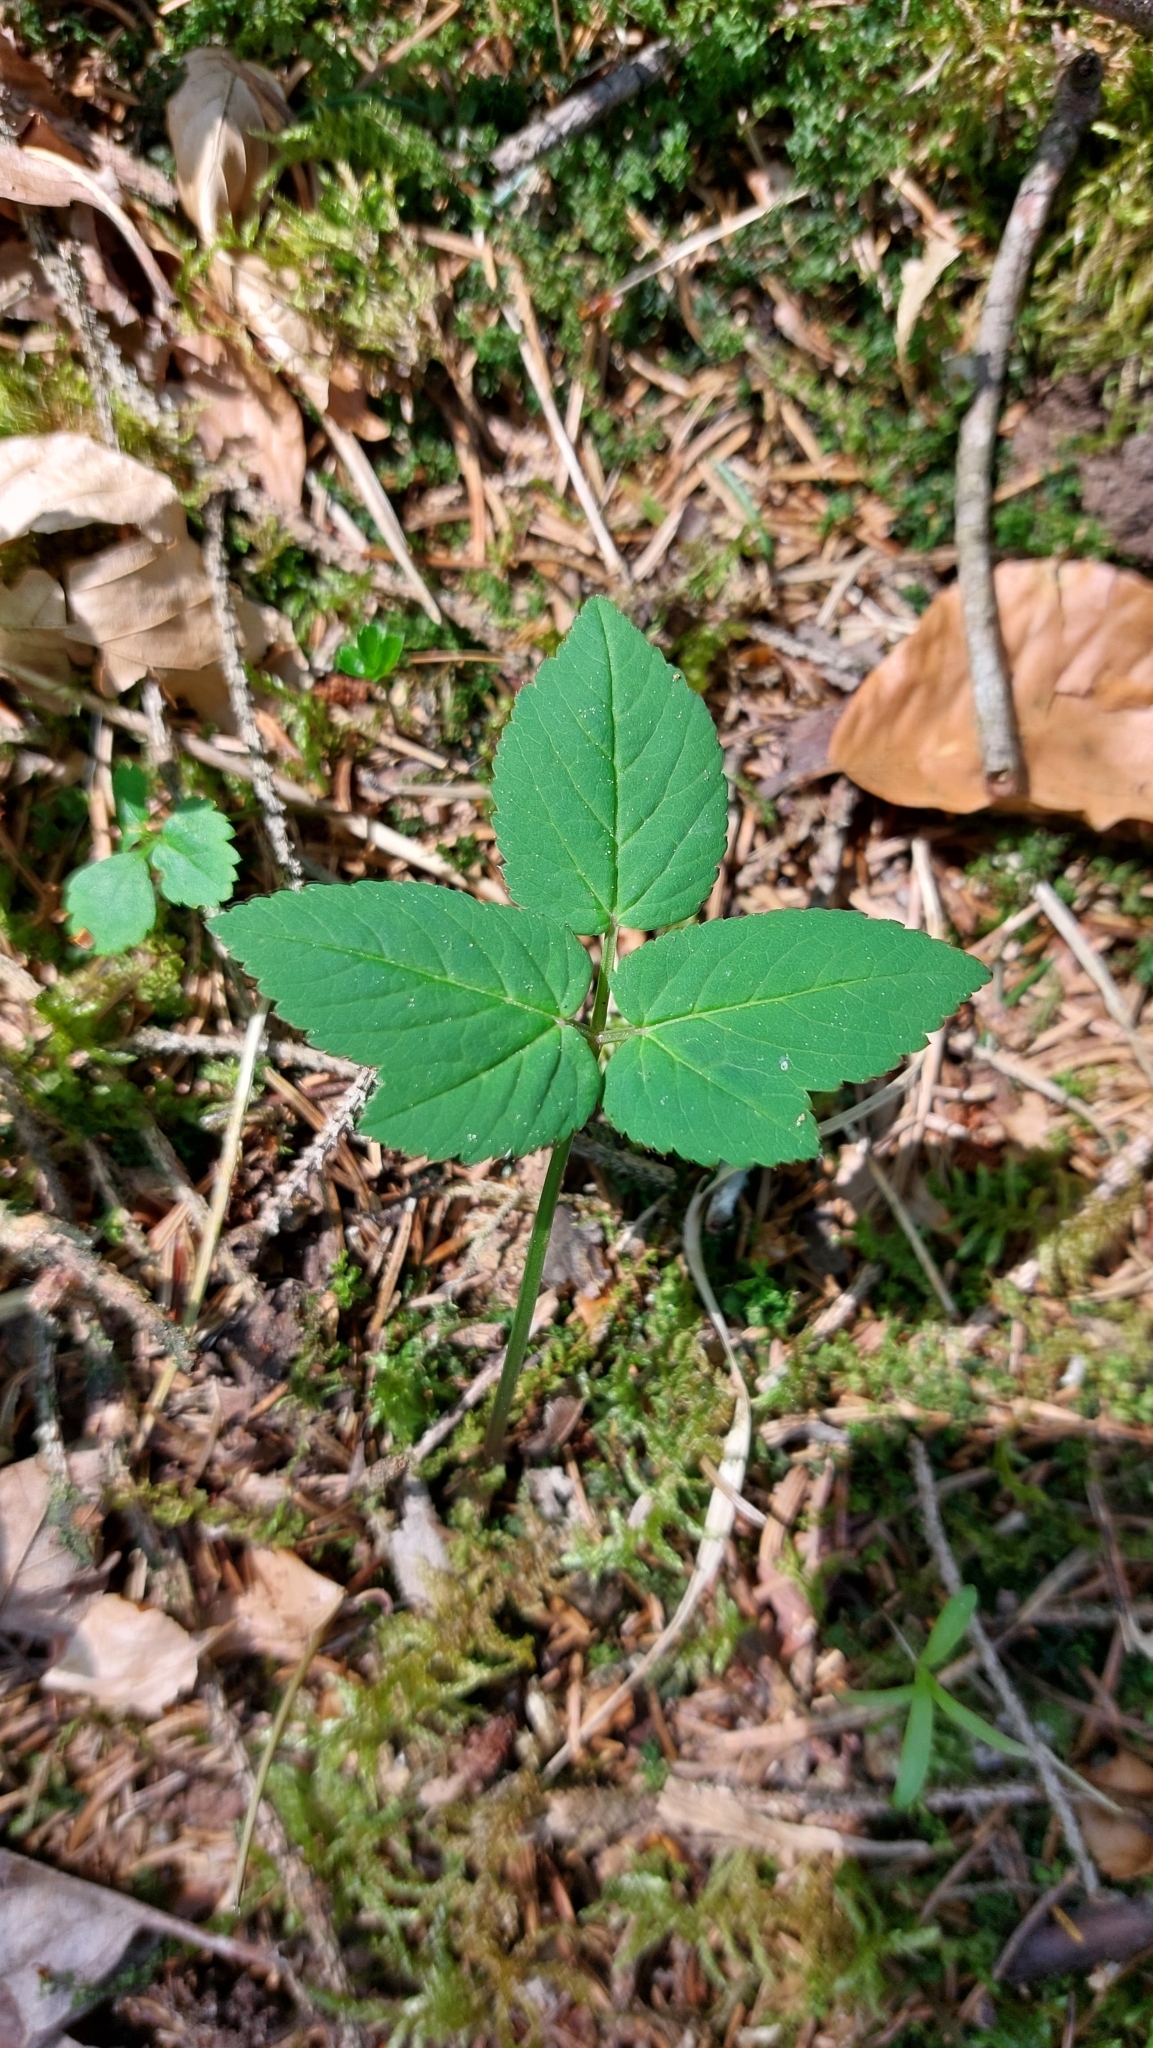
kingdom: Plantae
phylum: Tracheophyta
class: Magnoliopsida
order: Apiales
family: Apiaceae
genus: Aegopodium
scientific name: Aegopodium podagraria
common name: Ground-elder
